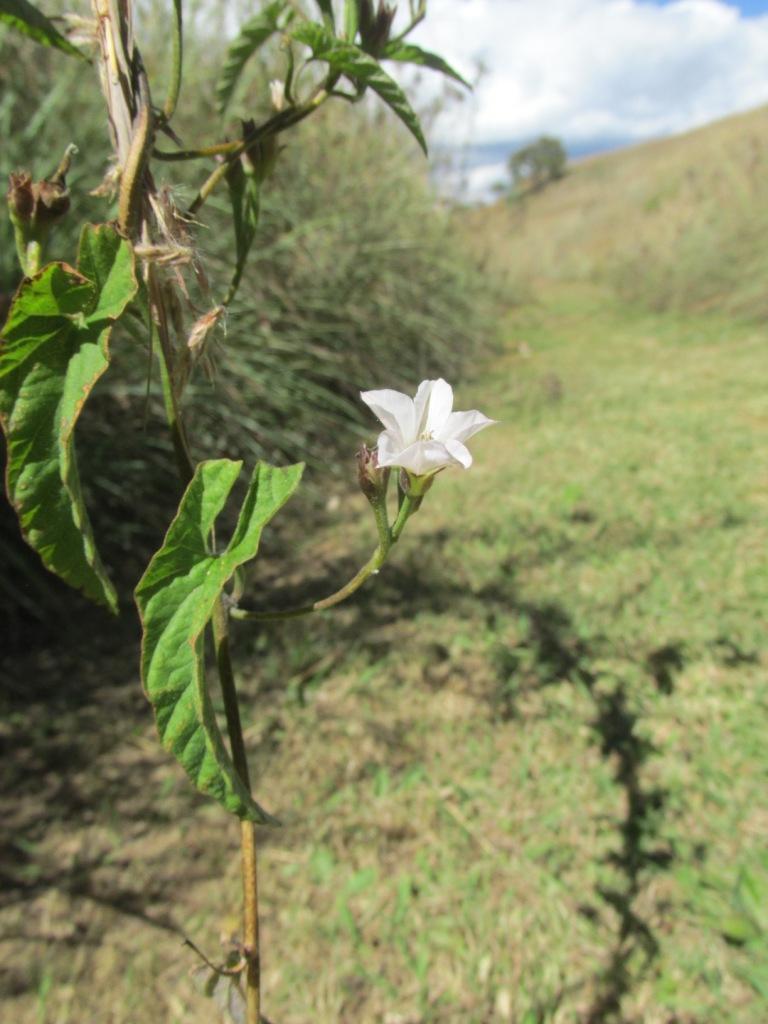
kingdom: Plantae
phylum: Tracheophyta
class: Magnoliopsida
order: Solanales
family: Convolvulaceae
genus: Convolvulus
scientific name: Convolvulus farinosus
